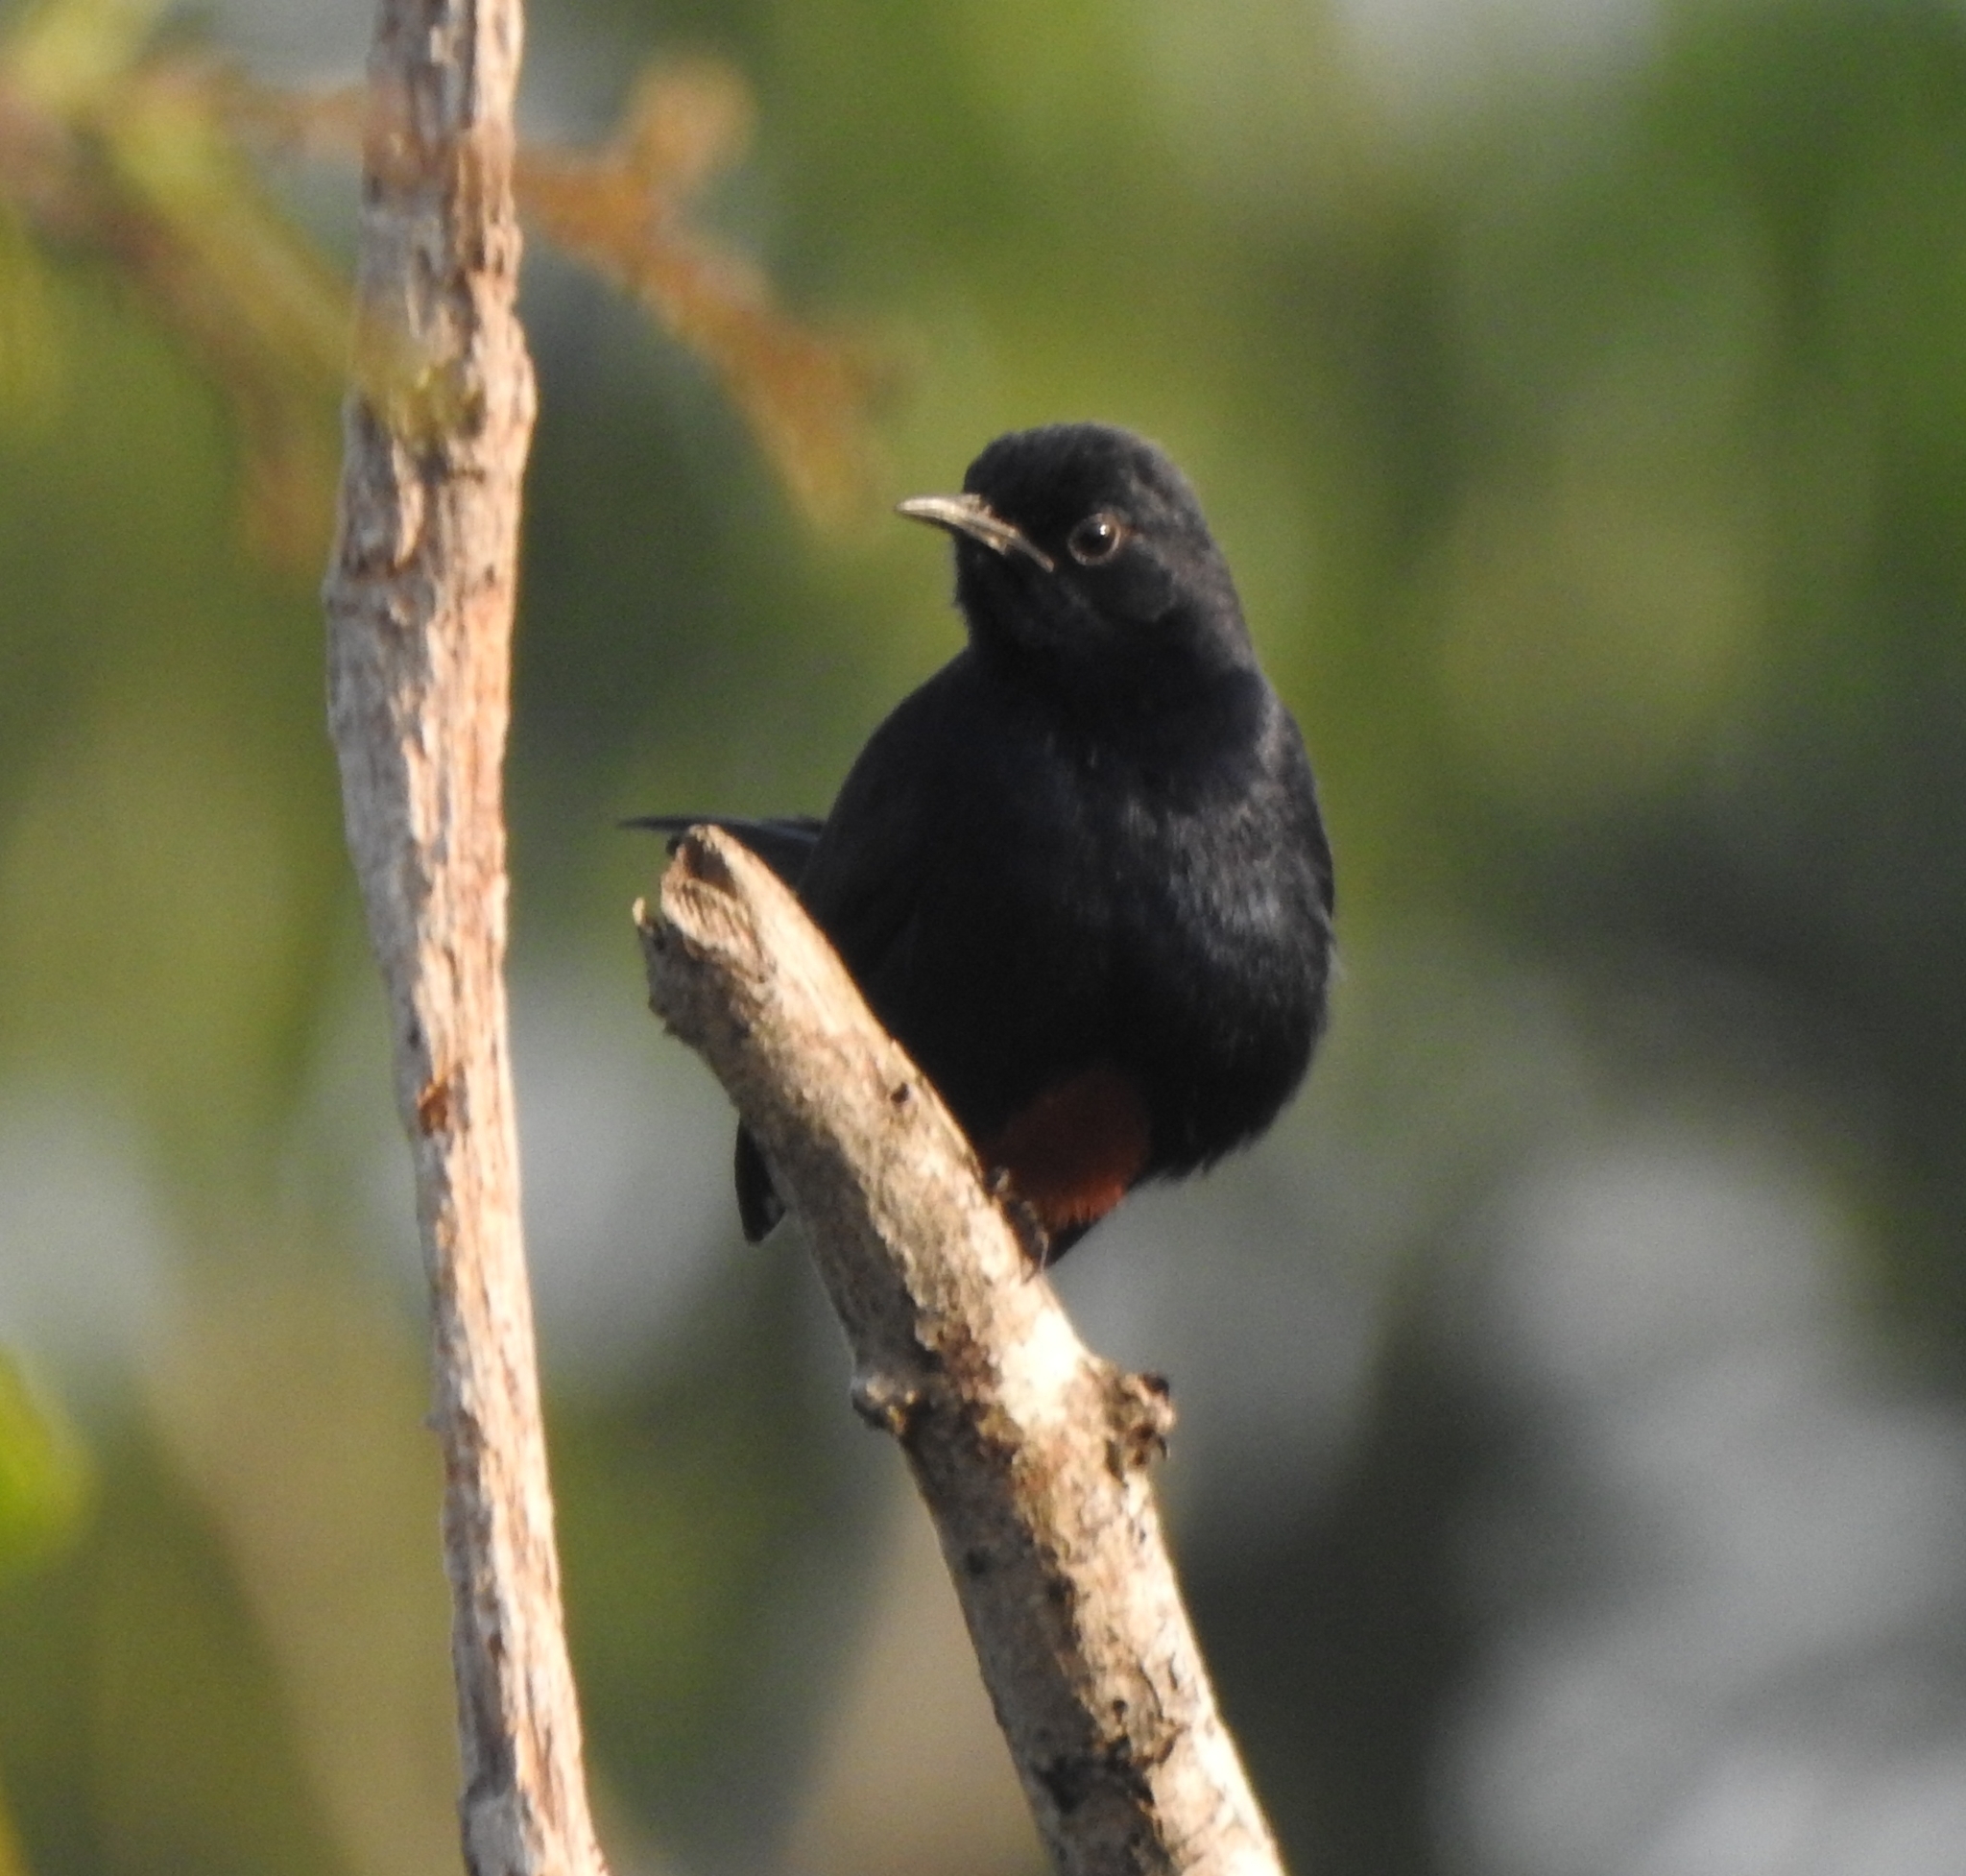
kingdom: Animalia
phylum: Chordata
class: Aves
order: Passeriformes
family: Muscicapidae
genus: Saxicoloides
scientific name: Saxicoloides fulicatus
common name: Indian robin
